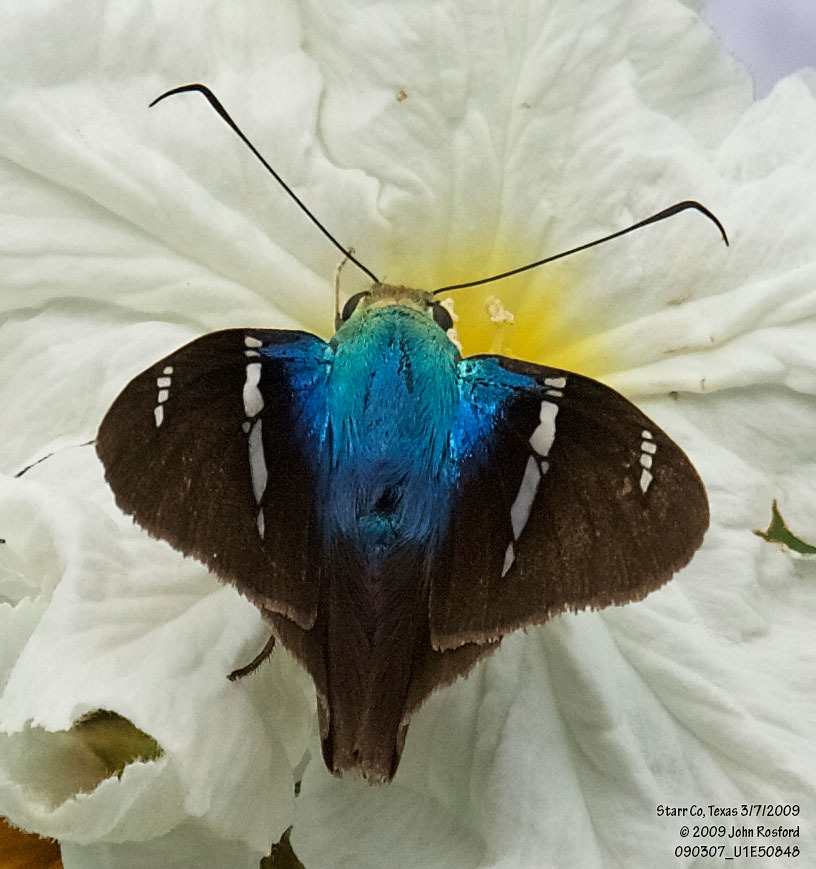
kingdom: Animalia
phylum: Arthropoda
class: Insecta
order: Lepidoptera
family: Hesperiidae
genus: Astraptes
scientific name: Astraptes fulgerator
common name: Two-barred flasher
